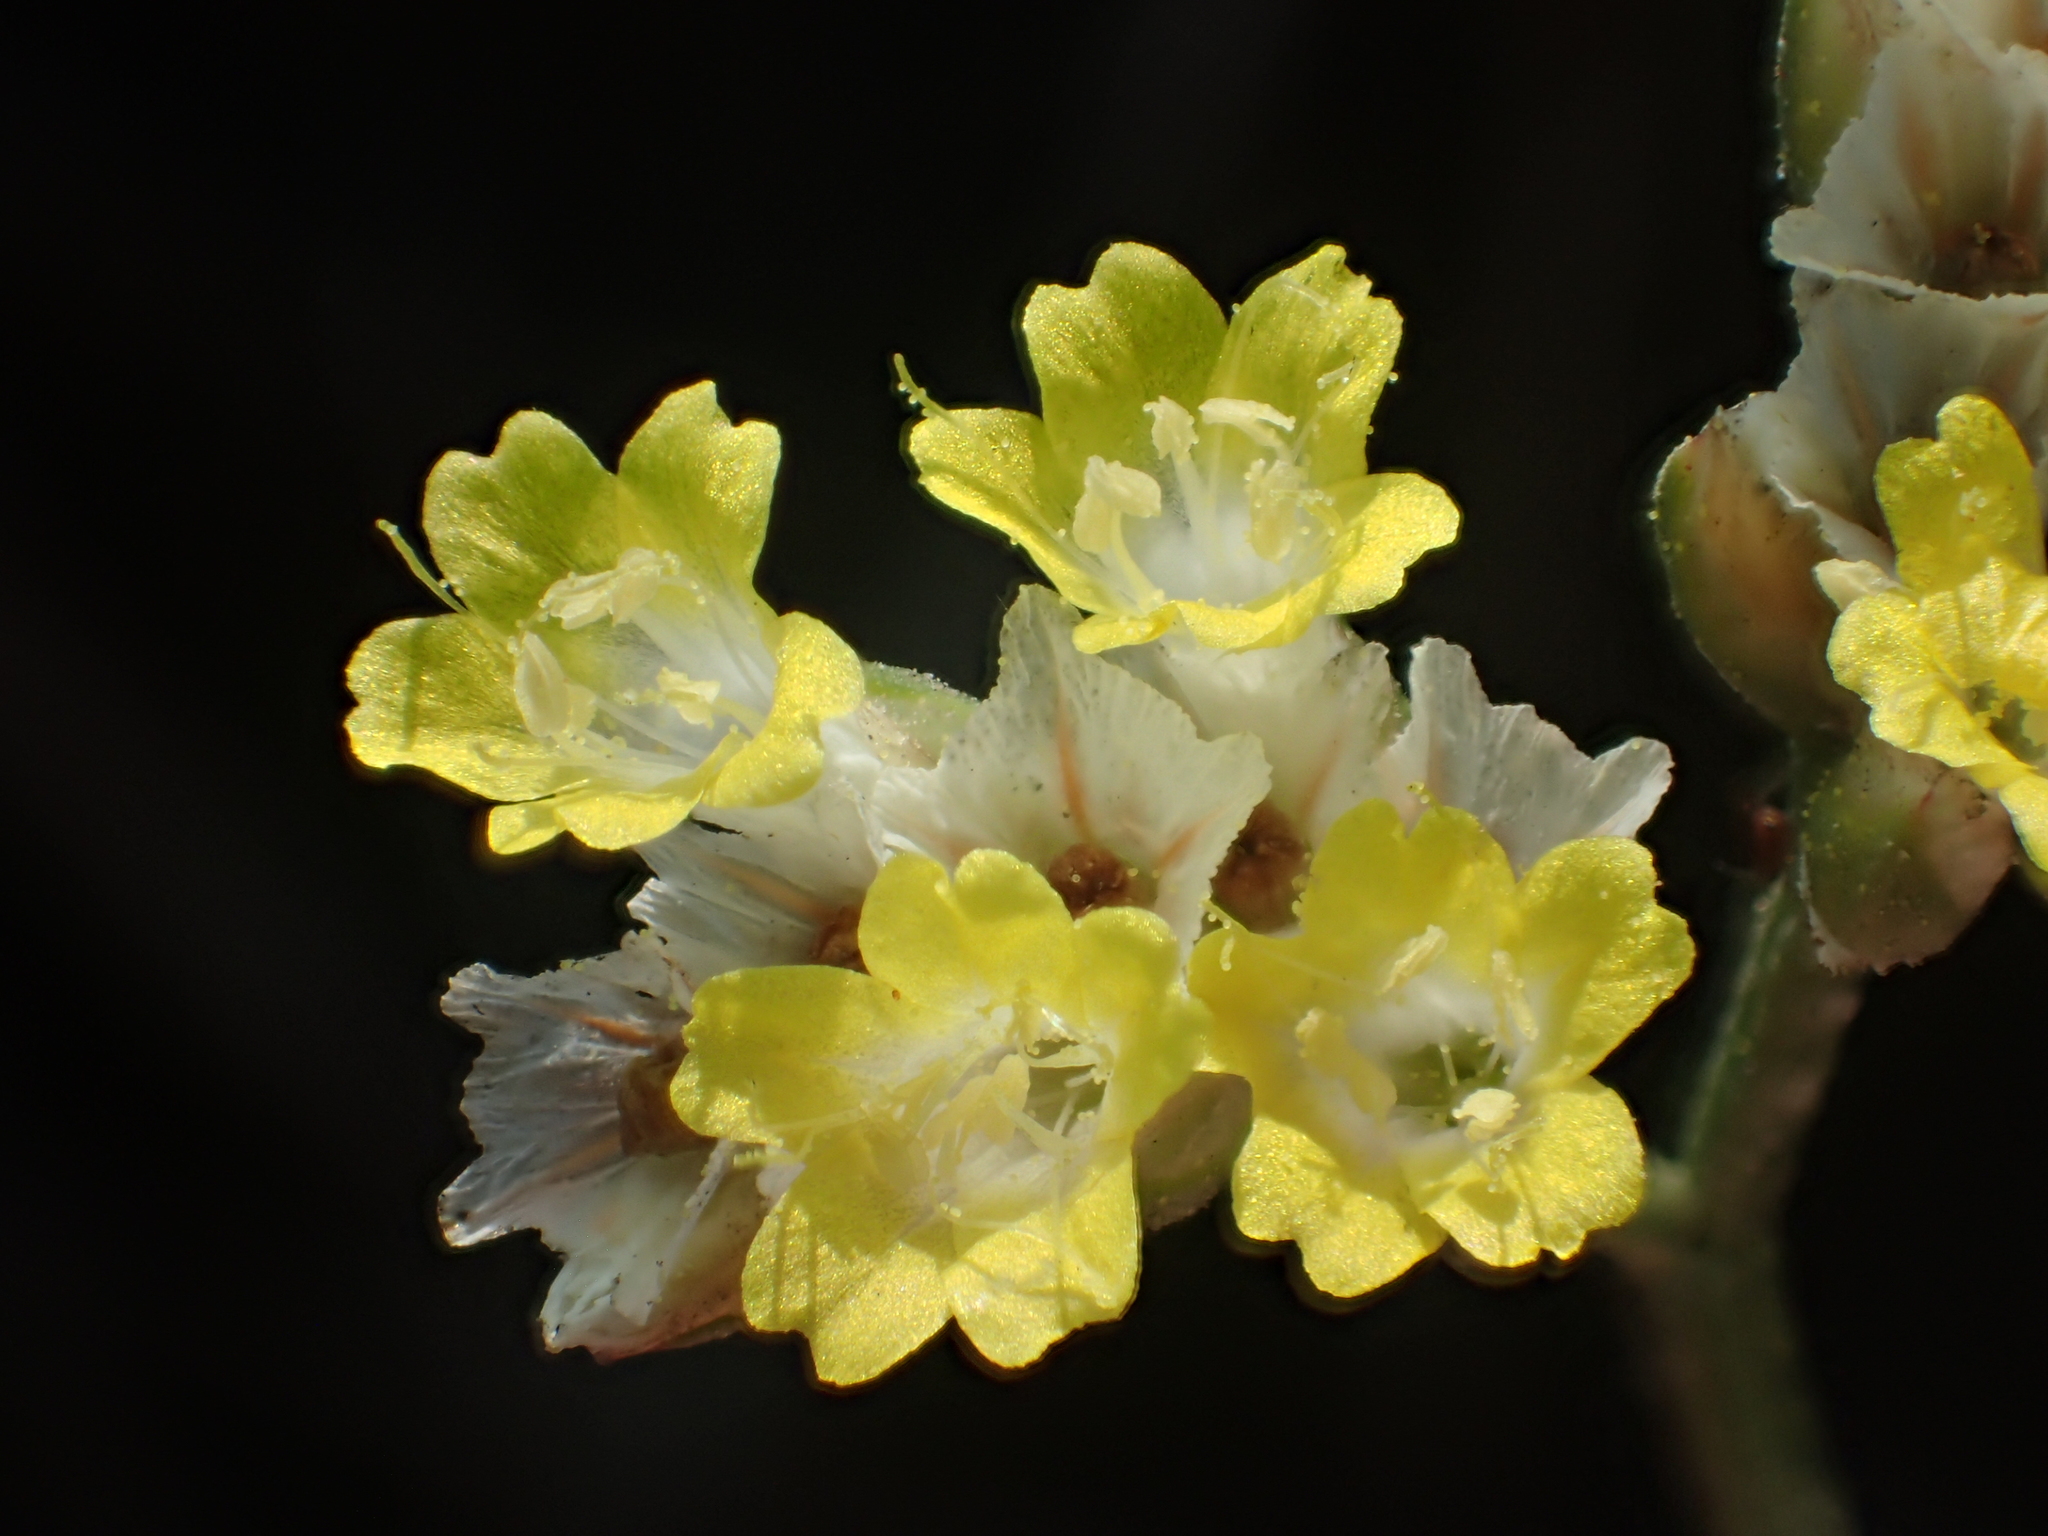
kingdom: Plantae
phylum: Tracheophyta
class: Magnoliopsida
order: Caryophyllales
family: Plumbaginaceae
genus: Limonium
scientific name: Limonium sinense
